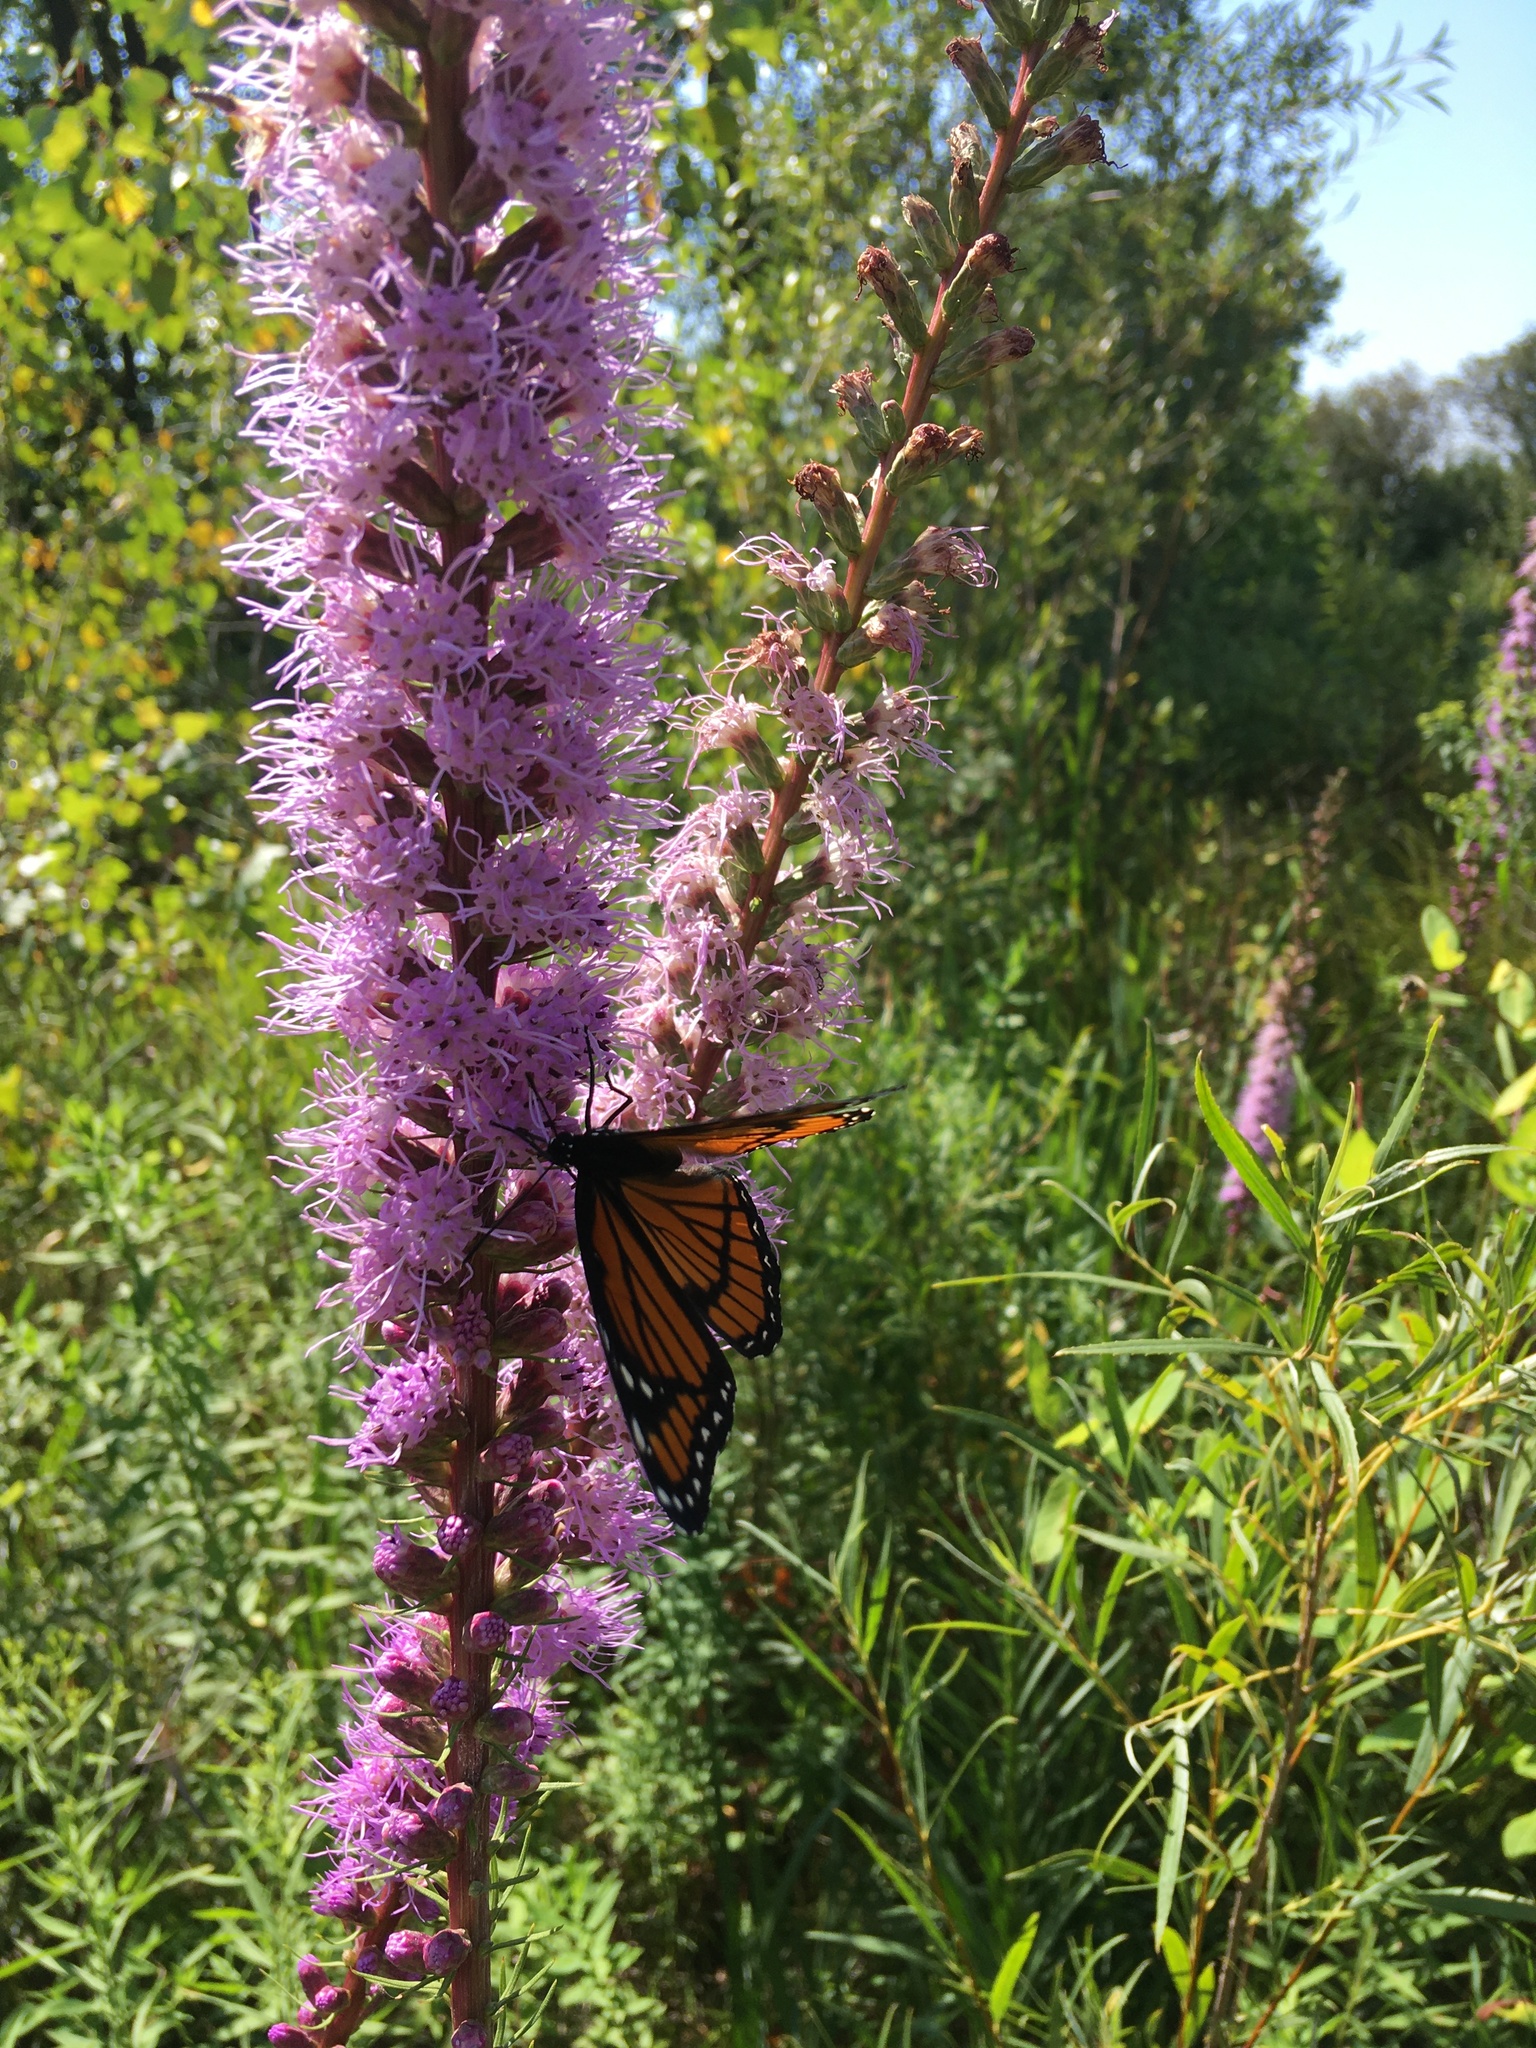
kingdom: Plantae
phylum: Tracheophyta
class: Magnoliopsida
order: Asterales
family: Asteraceae
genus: Liatris
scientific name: Liatris spicata
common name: Florist gayfeather
